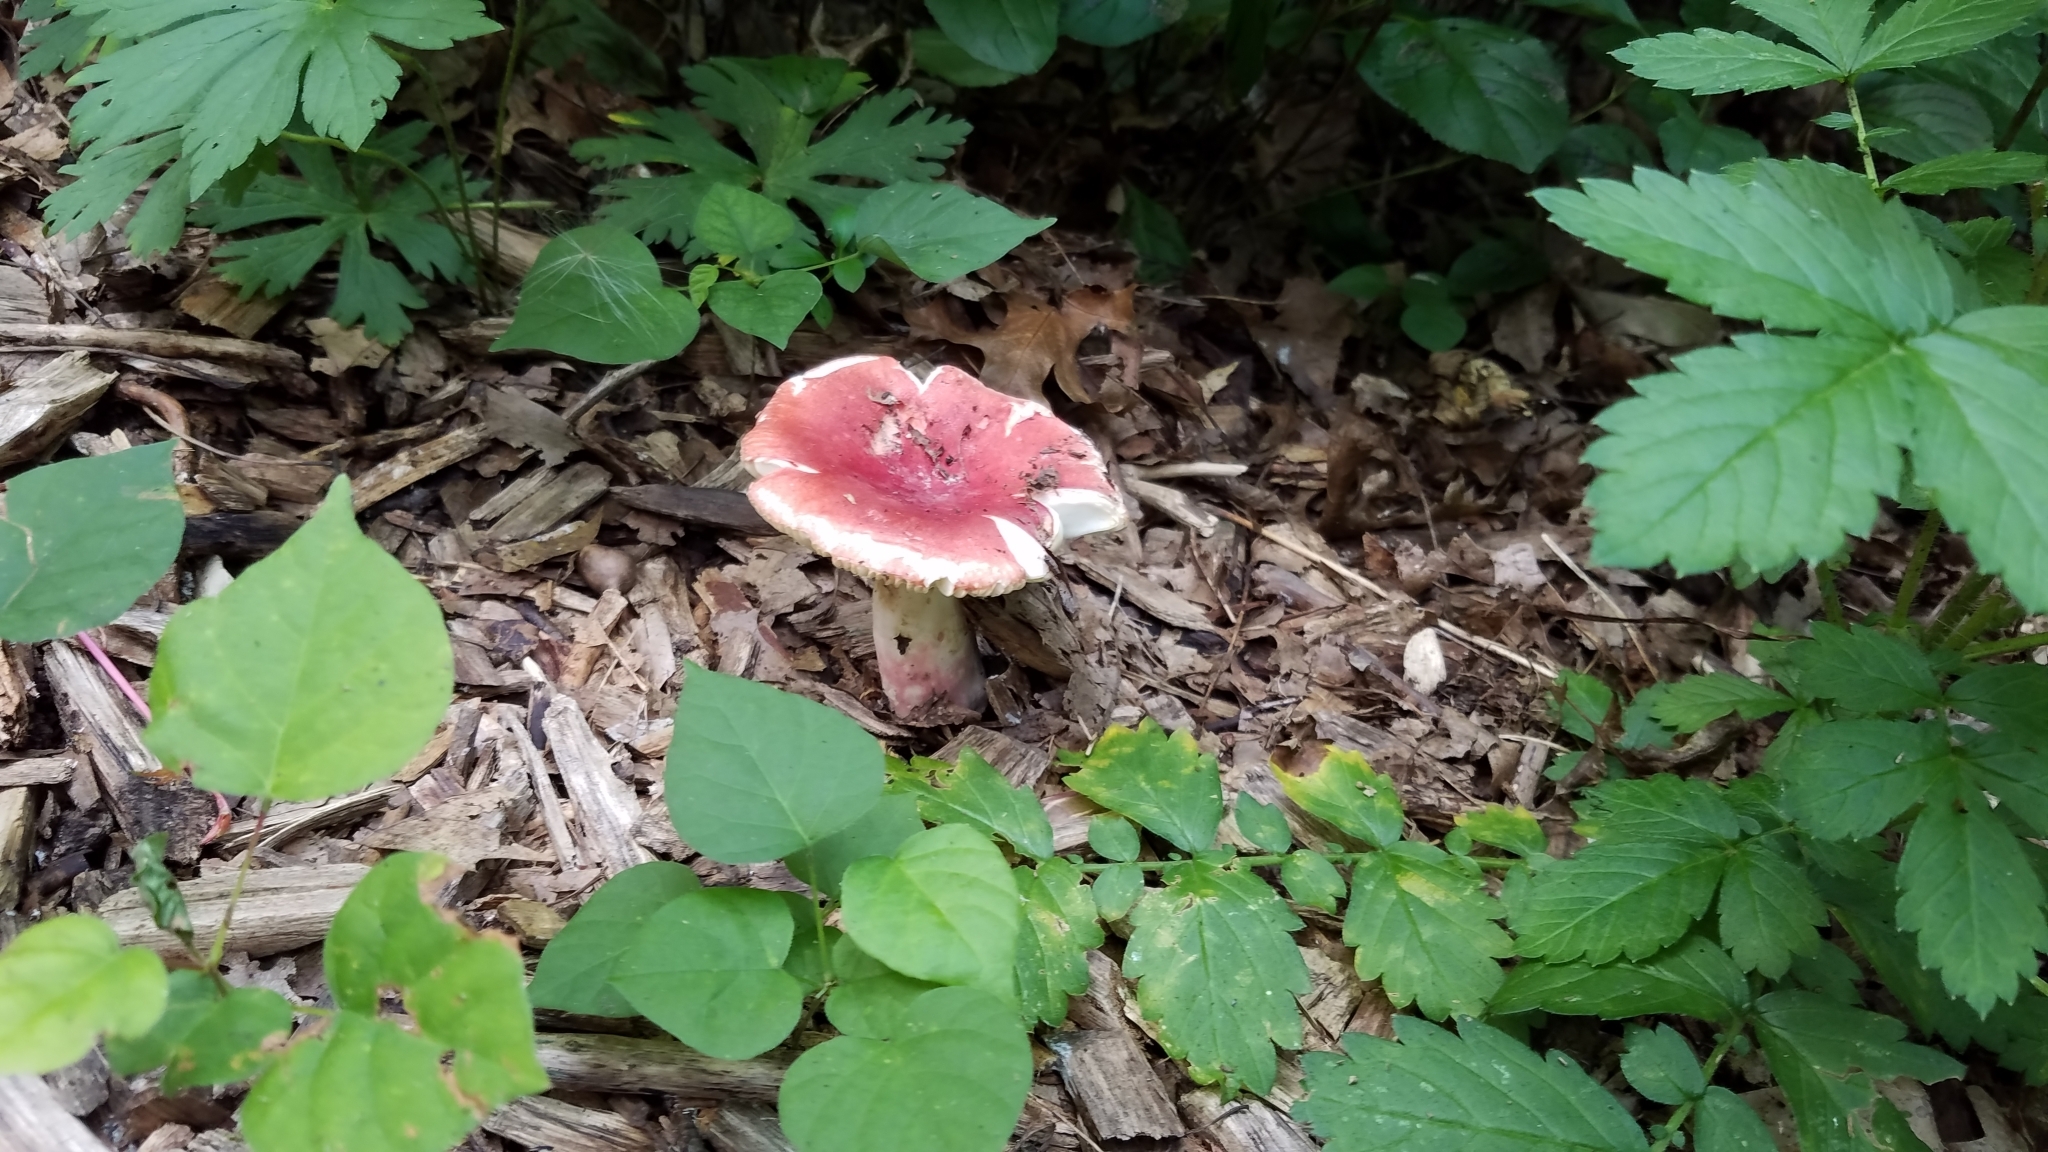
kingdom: Fungi
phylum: Basidiomycota
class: Agaricomycetes
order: Russulales
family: Russulaceae
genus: Russula
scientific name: Russula
